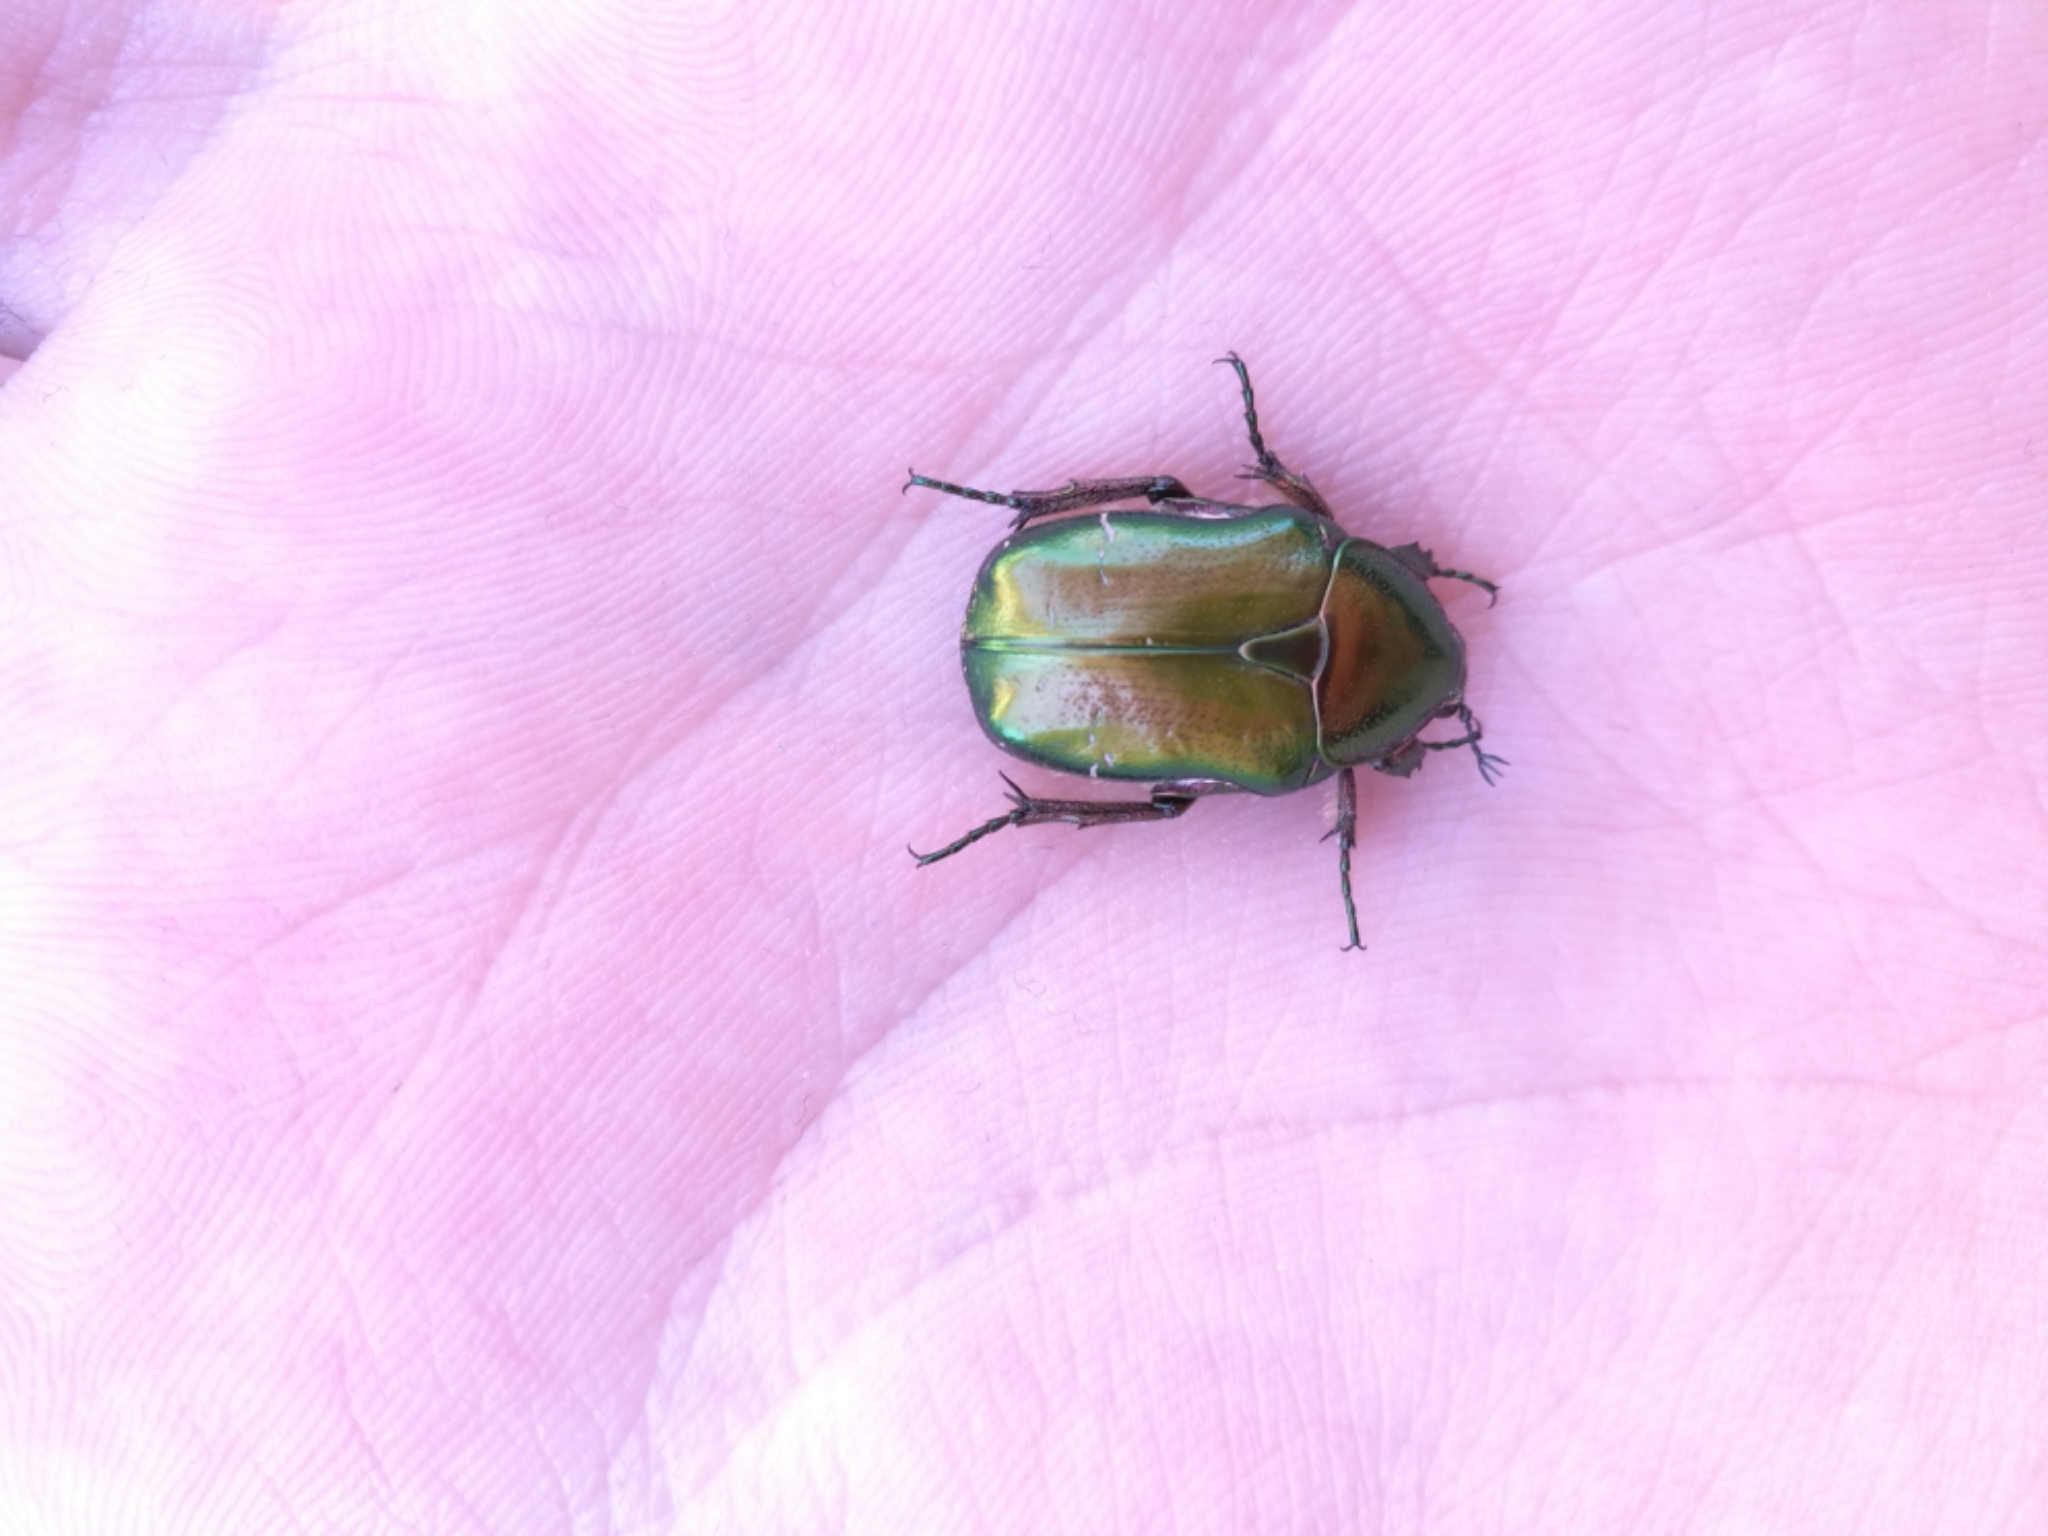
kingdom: Animalia
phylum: Arthropoda
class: Insecta
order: Coleoptera
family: Scarabaeidae
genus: Cetonia
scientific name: Cetonia aurata
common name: Rose chafer
